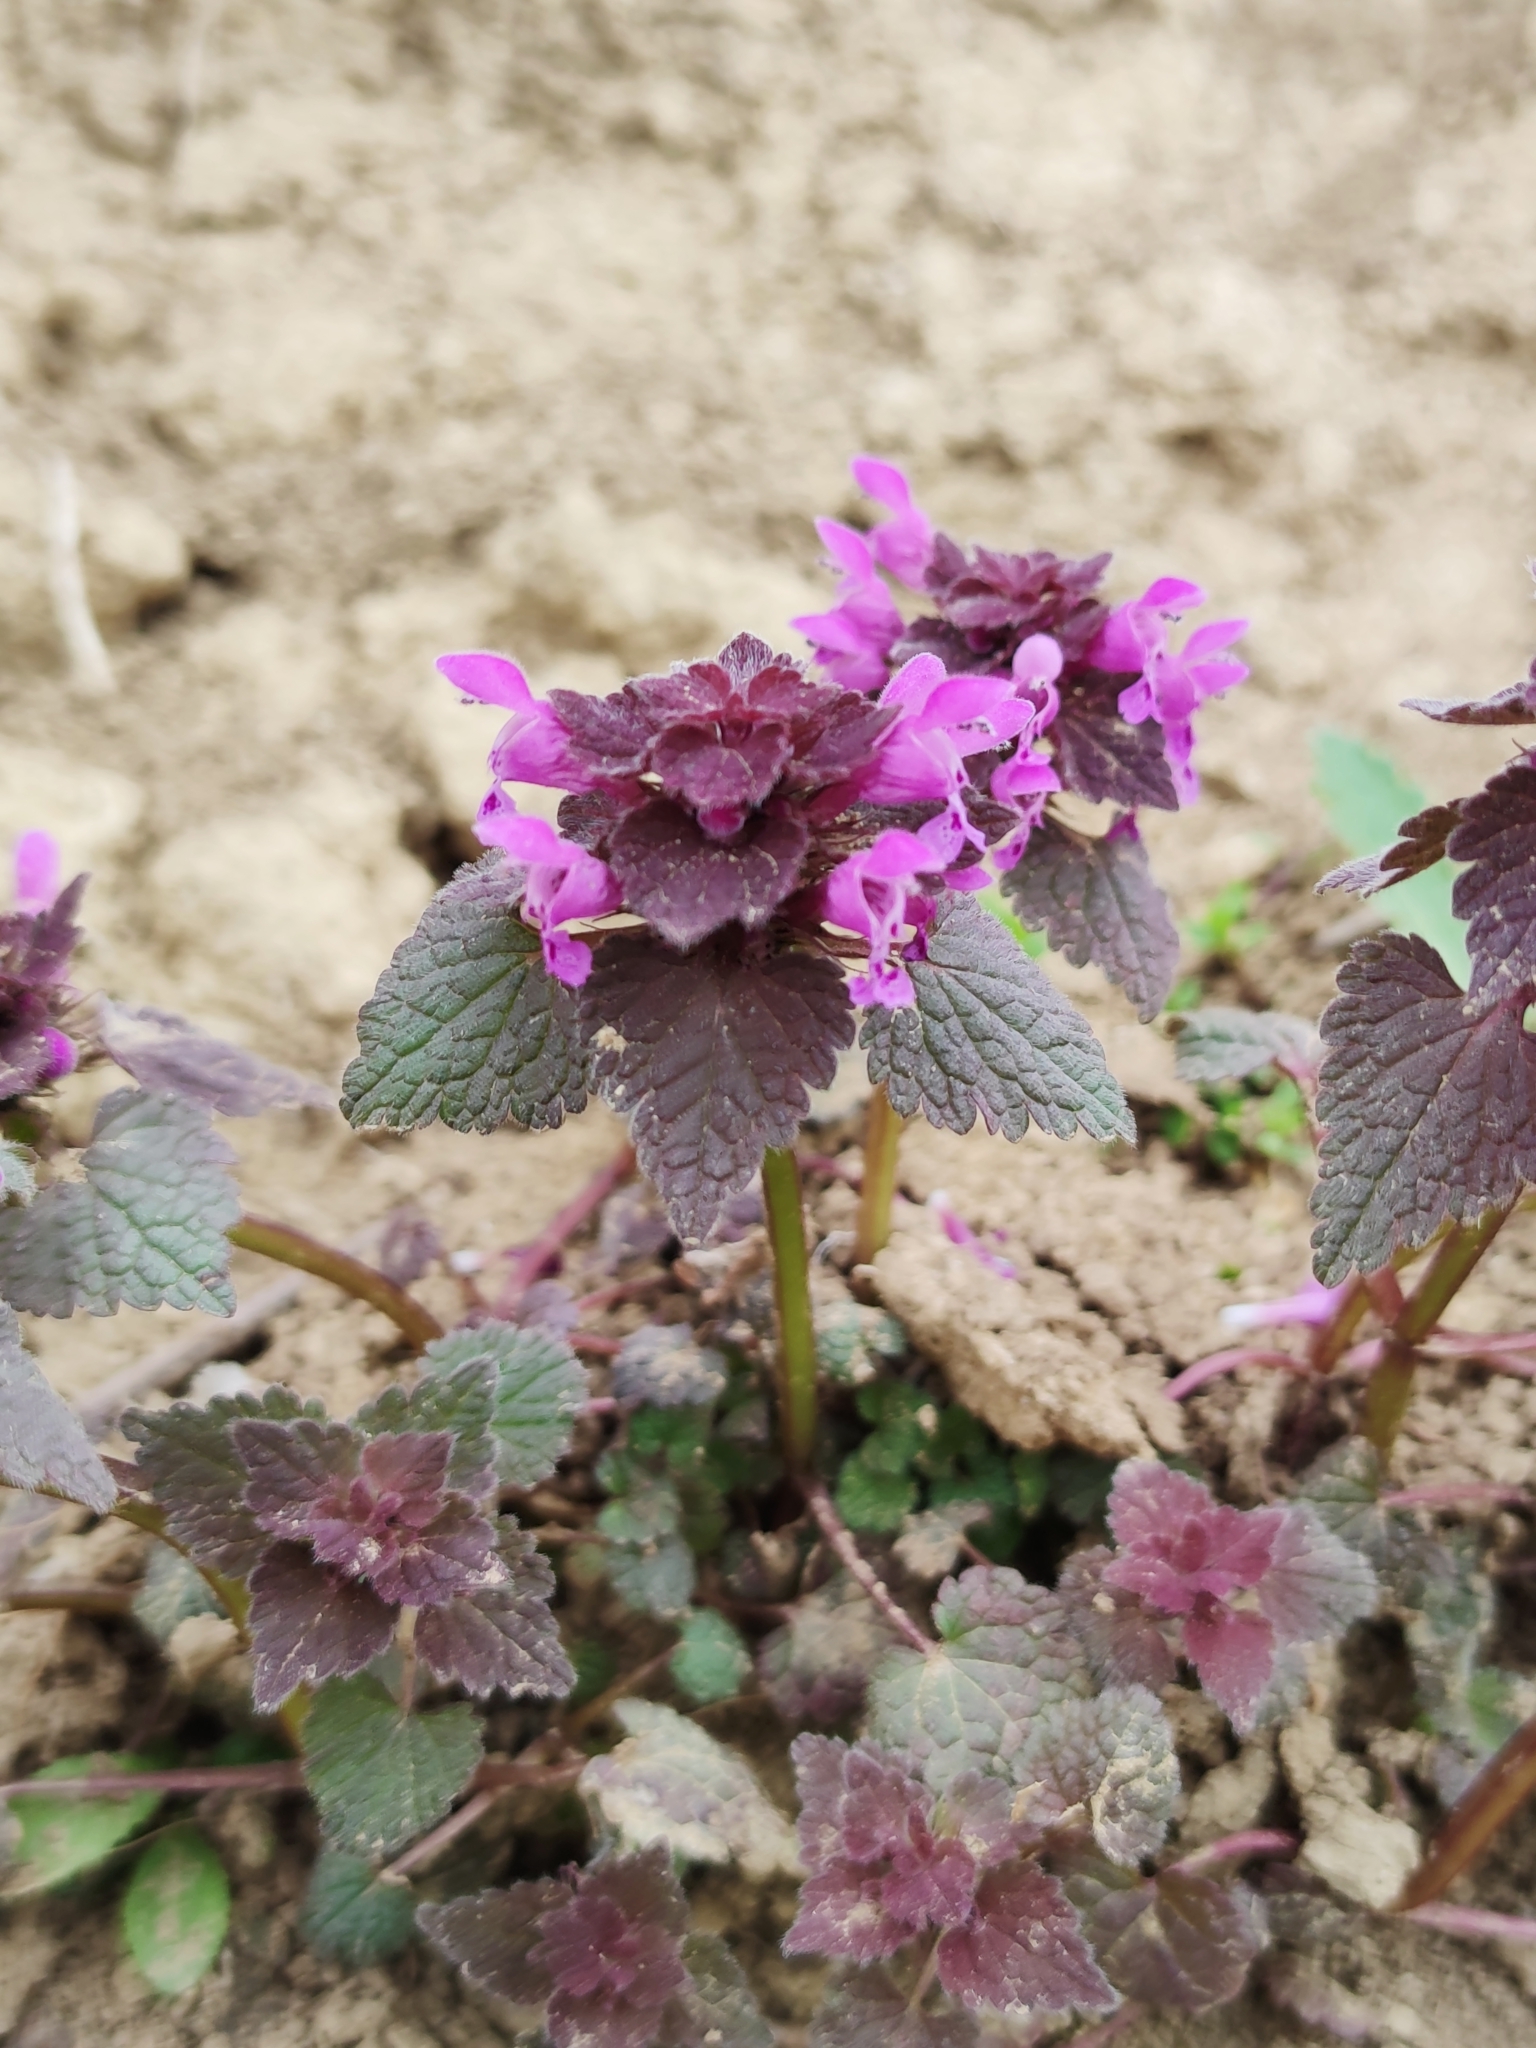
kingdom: Plantae
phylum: Tracheophyta
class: Magnoliopsida
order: Lamiales
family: Lamiaceae
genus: Lamium
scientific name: Lamium purpureum
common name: Red dead-nettle
